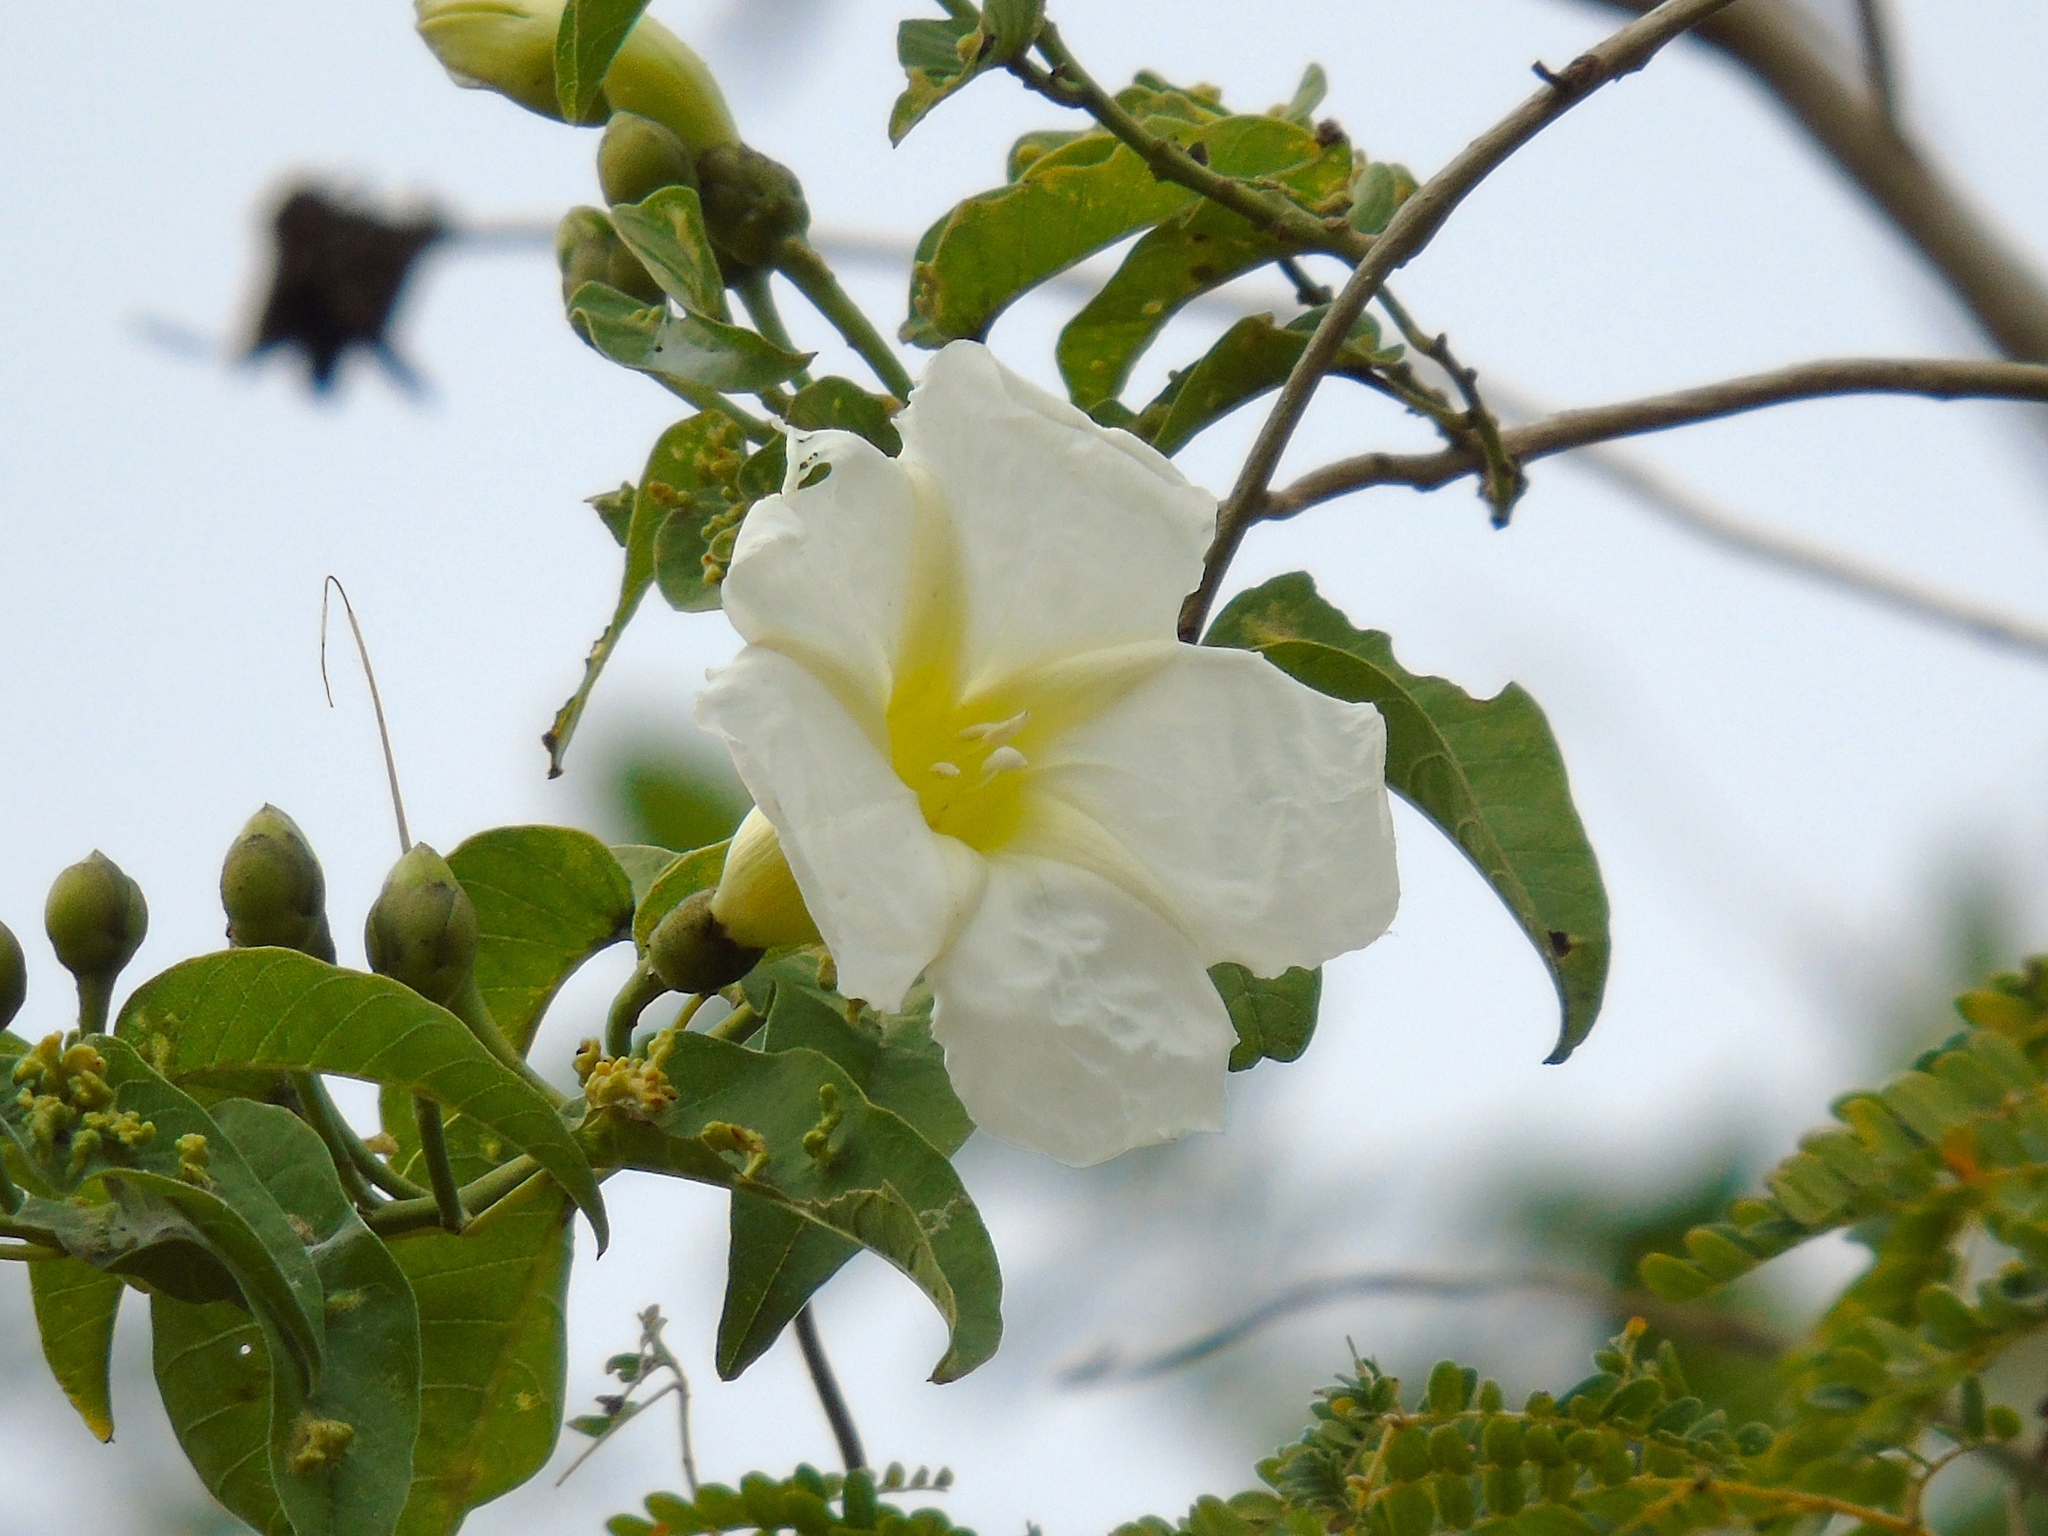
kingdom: Plantae
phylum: Tracheophyta
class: Magnoliopsida
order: Solanales
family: Convolvulaceae
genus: Ipomoea
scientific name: Ipomoea arborescens
